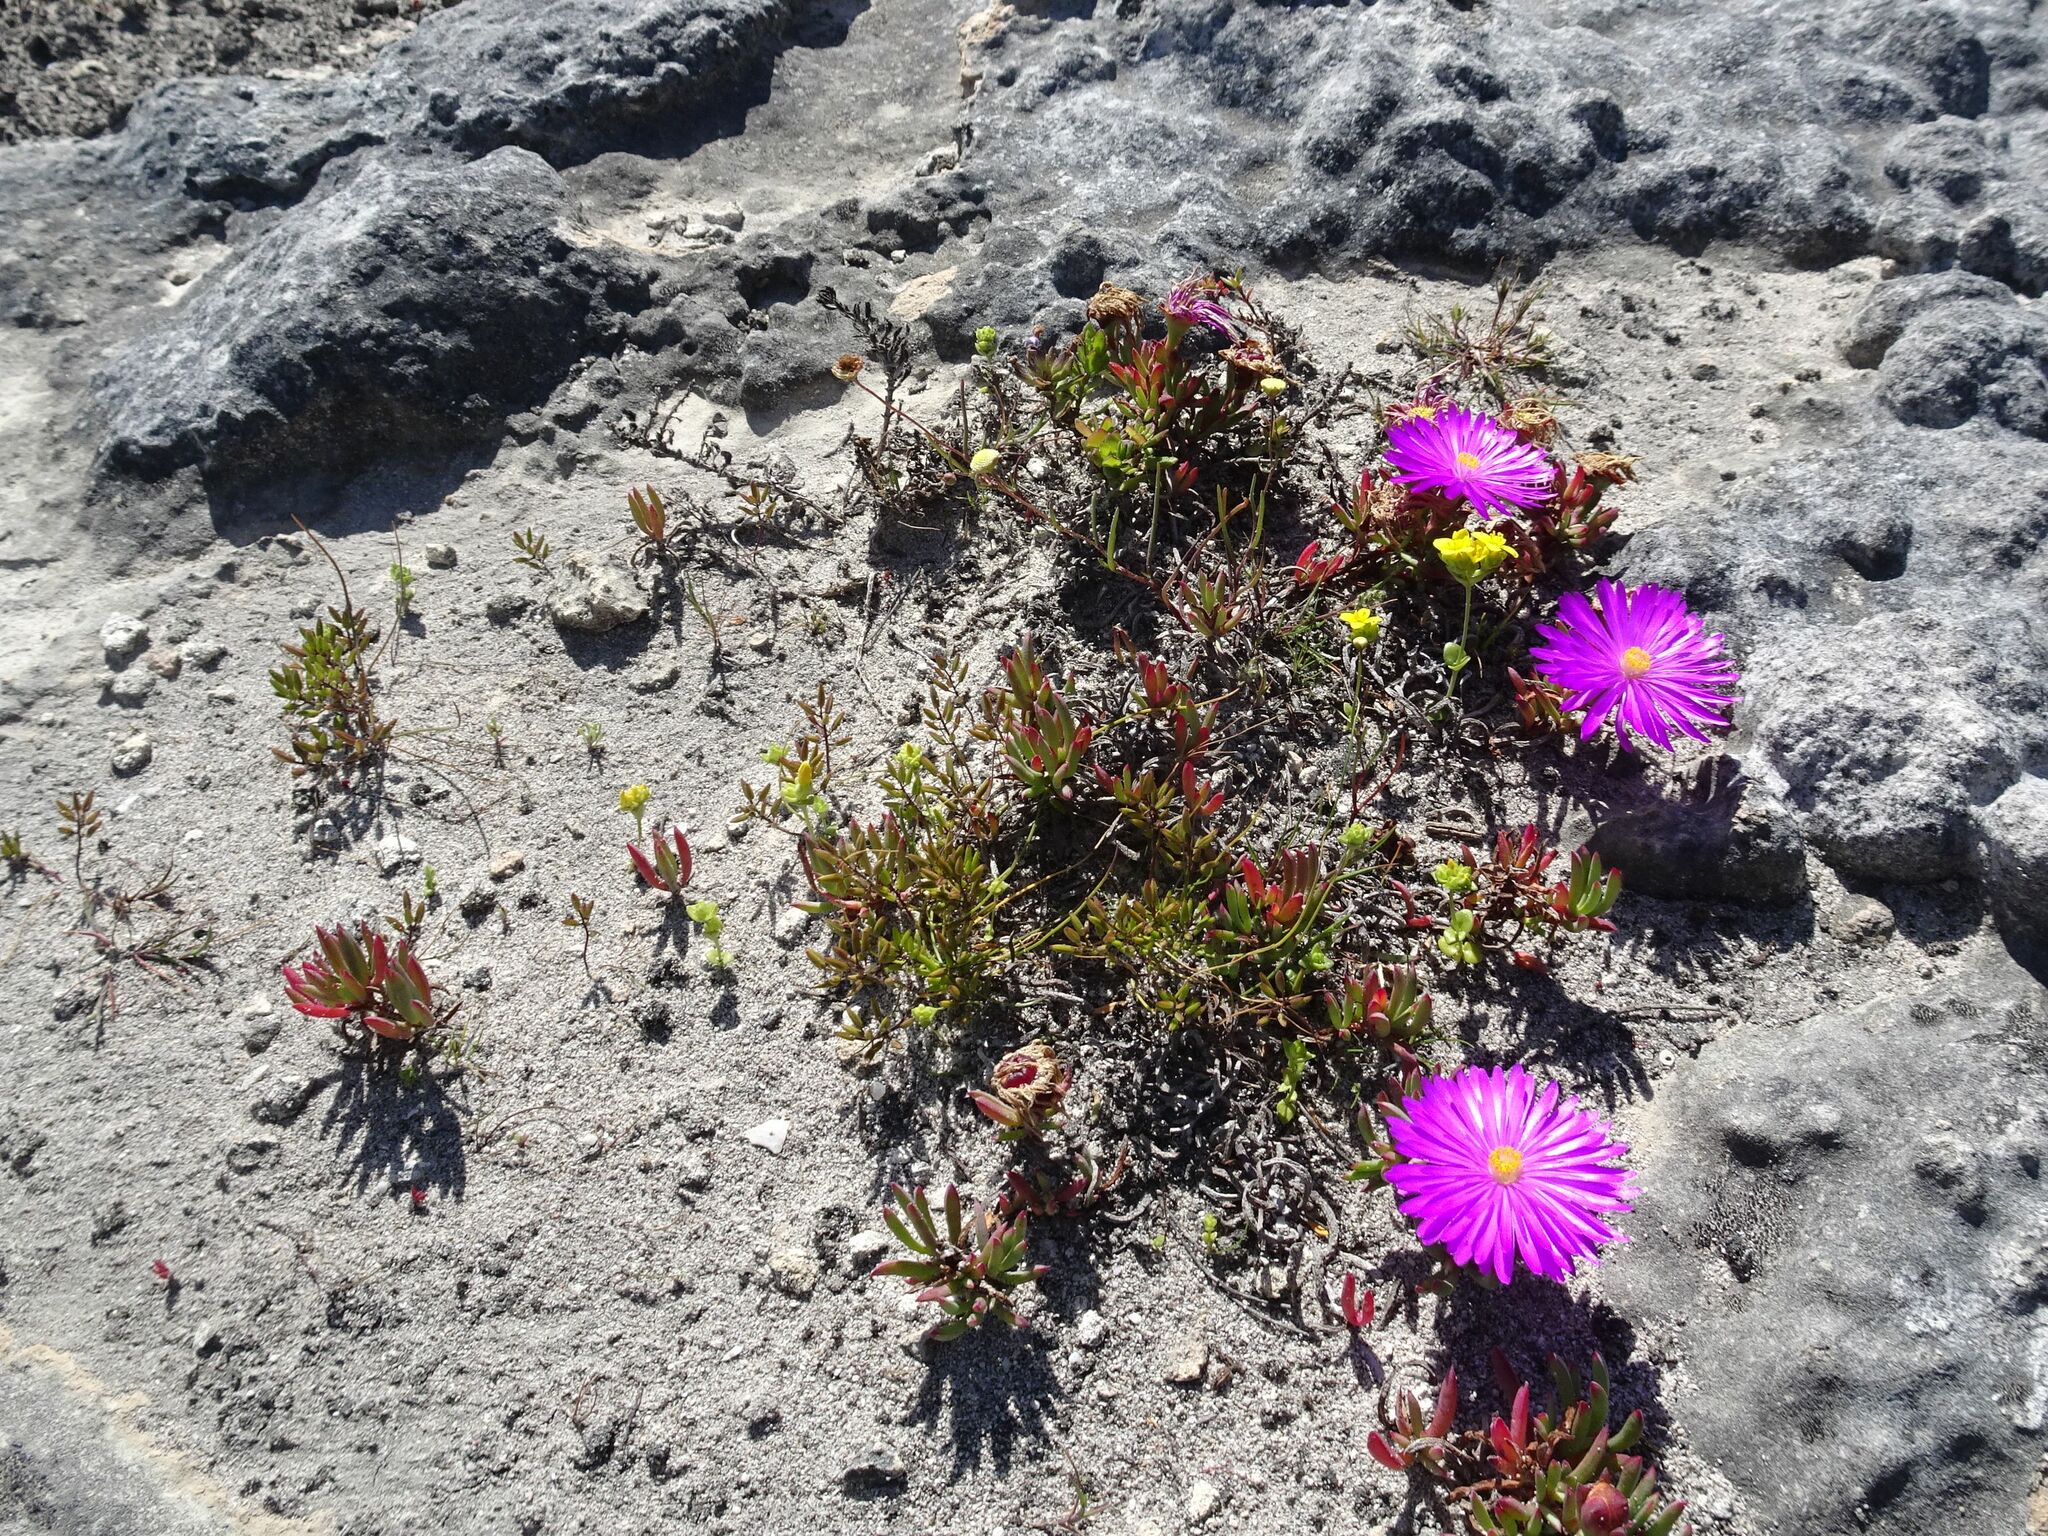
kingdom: Plantae
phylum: Tracheophyta
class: Magnoliopsida
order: Caryophyllales
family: Aizoaceae
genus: Lampranthus
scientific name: Lampranthus ceriseus
